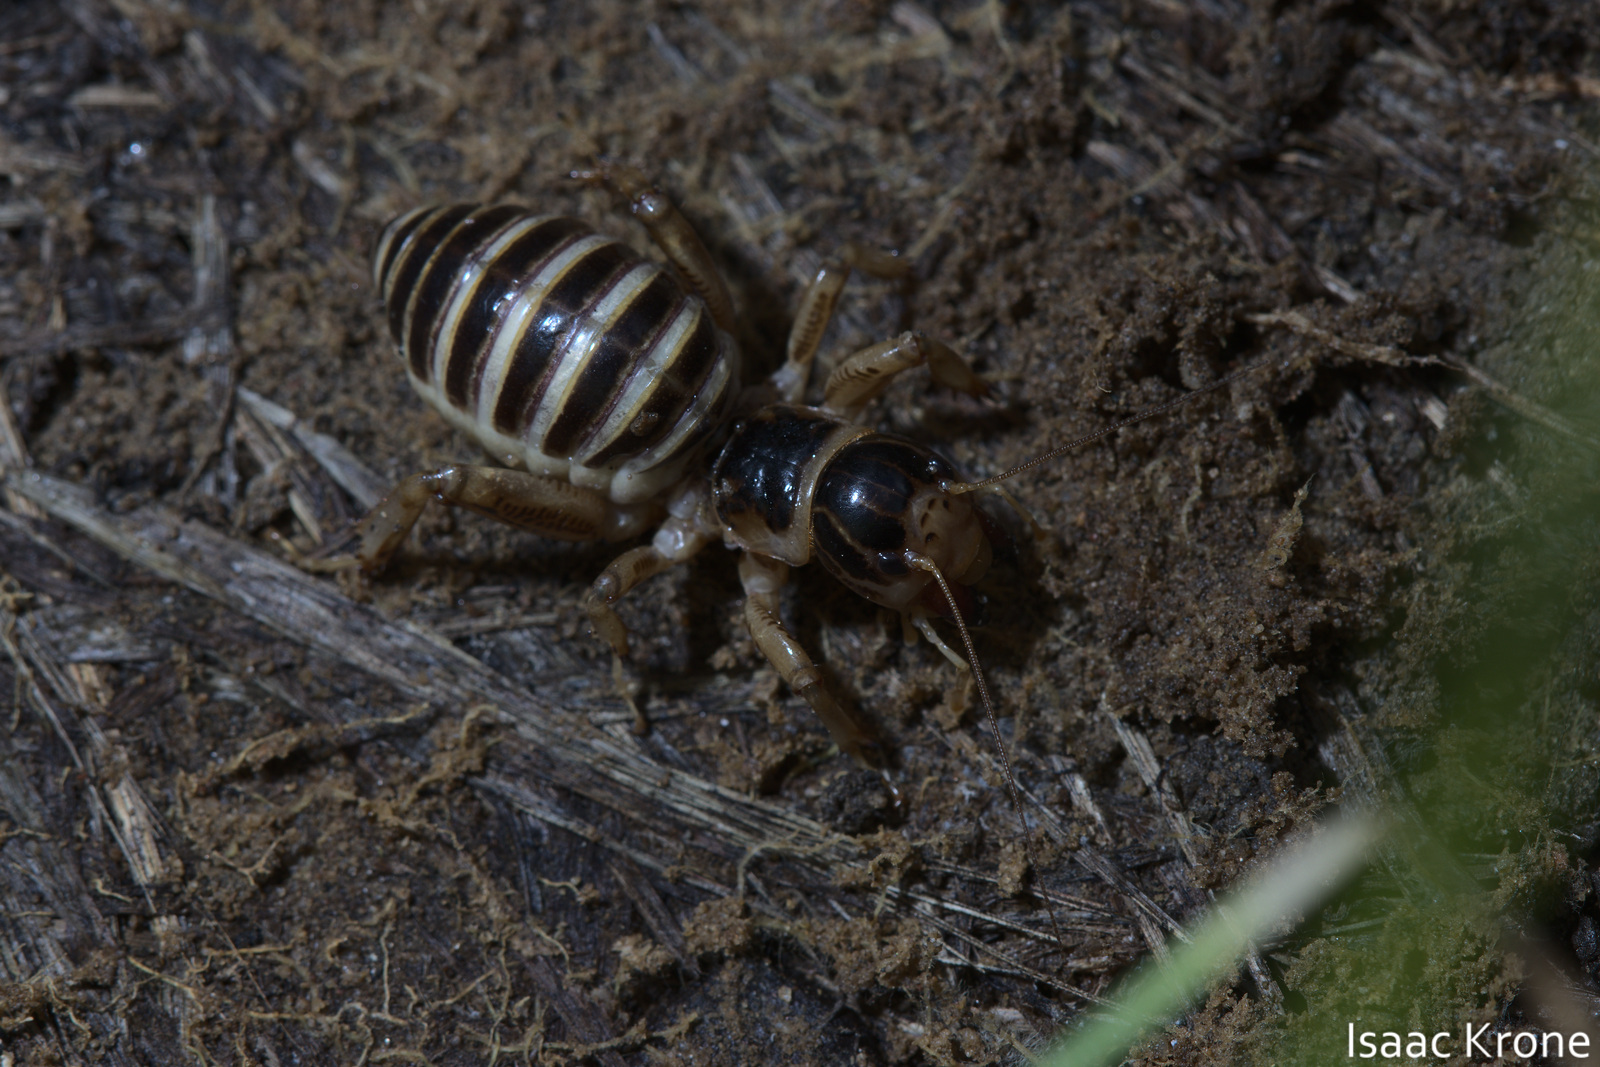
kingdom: Animalia
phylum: Arthropoda
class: Insecta
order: Orthoptera
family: Stenopelmatidae
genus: Ammopelmatus
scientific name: Ammopelmatus pictus
